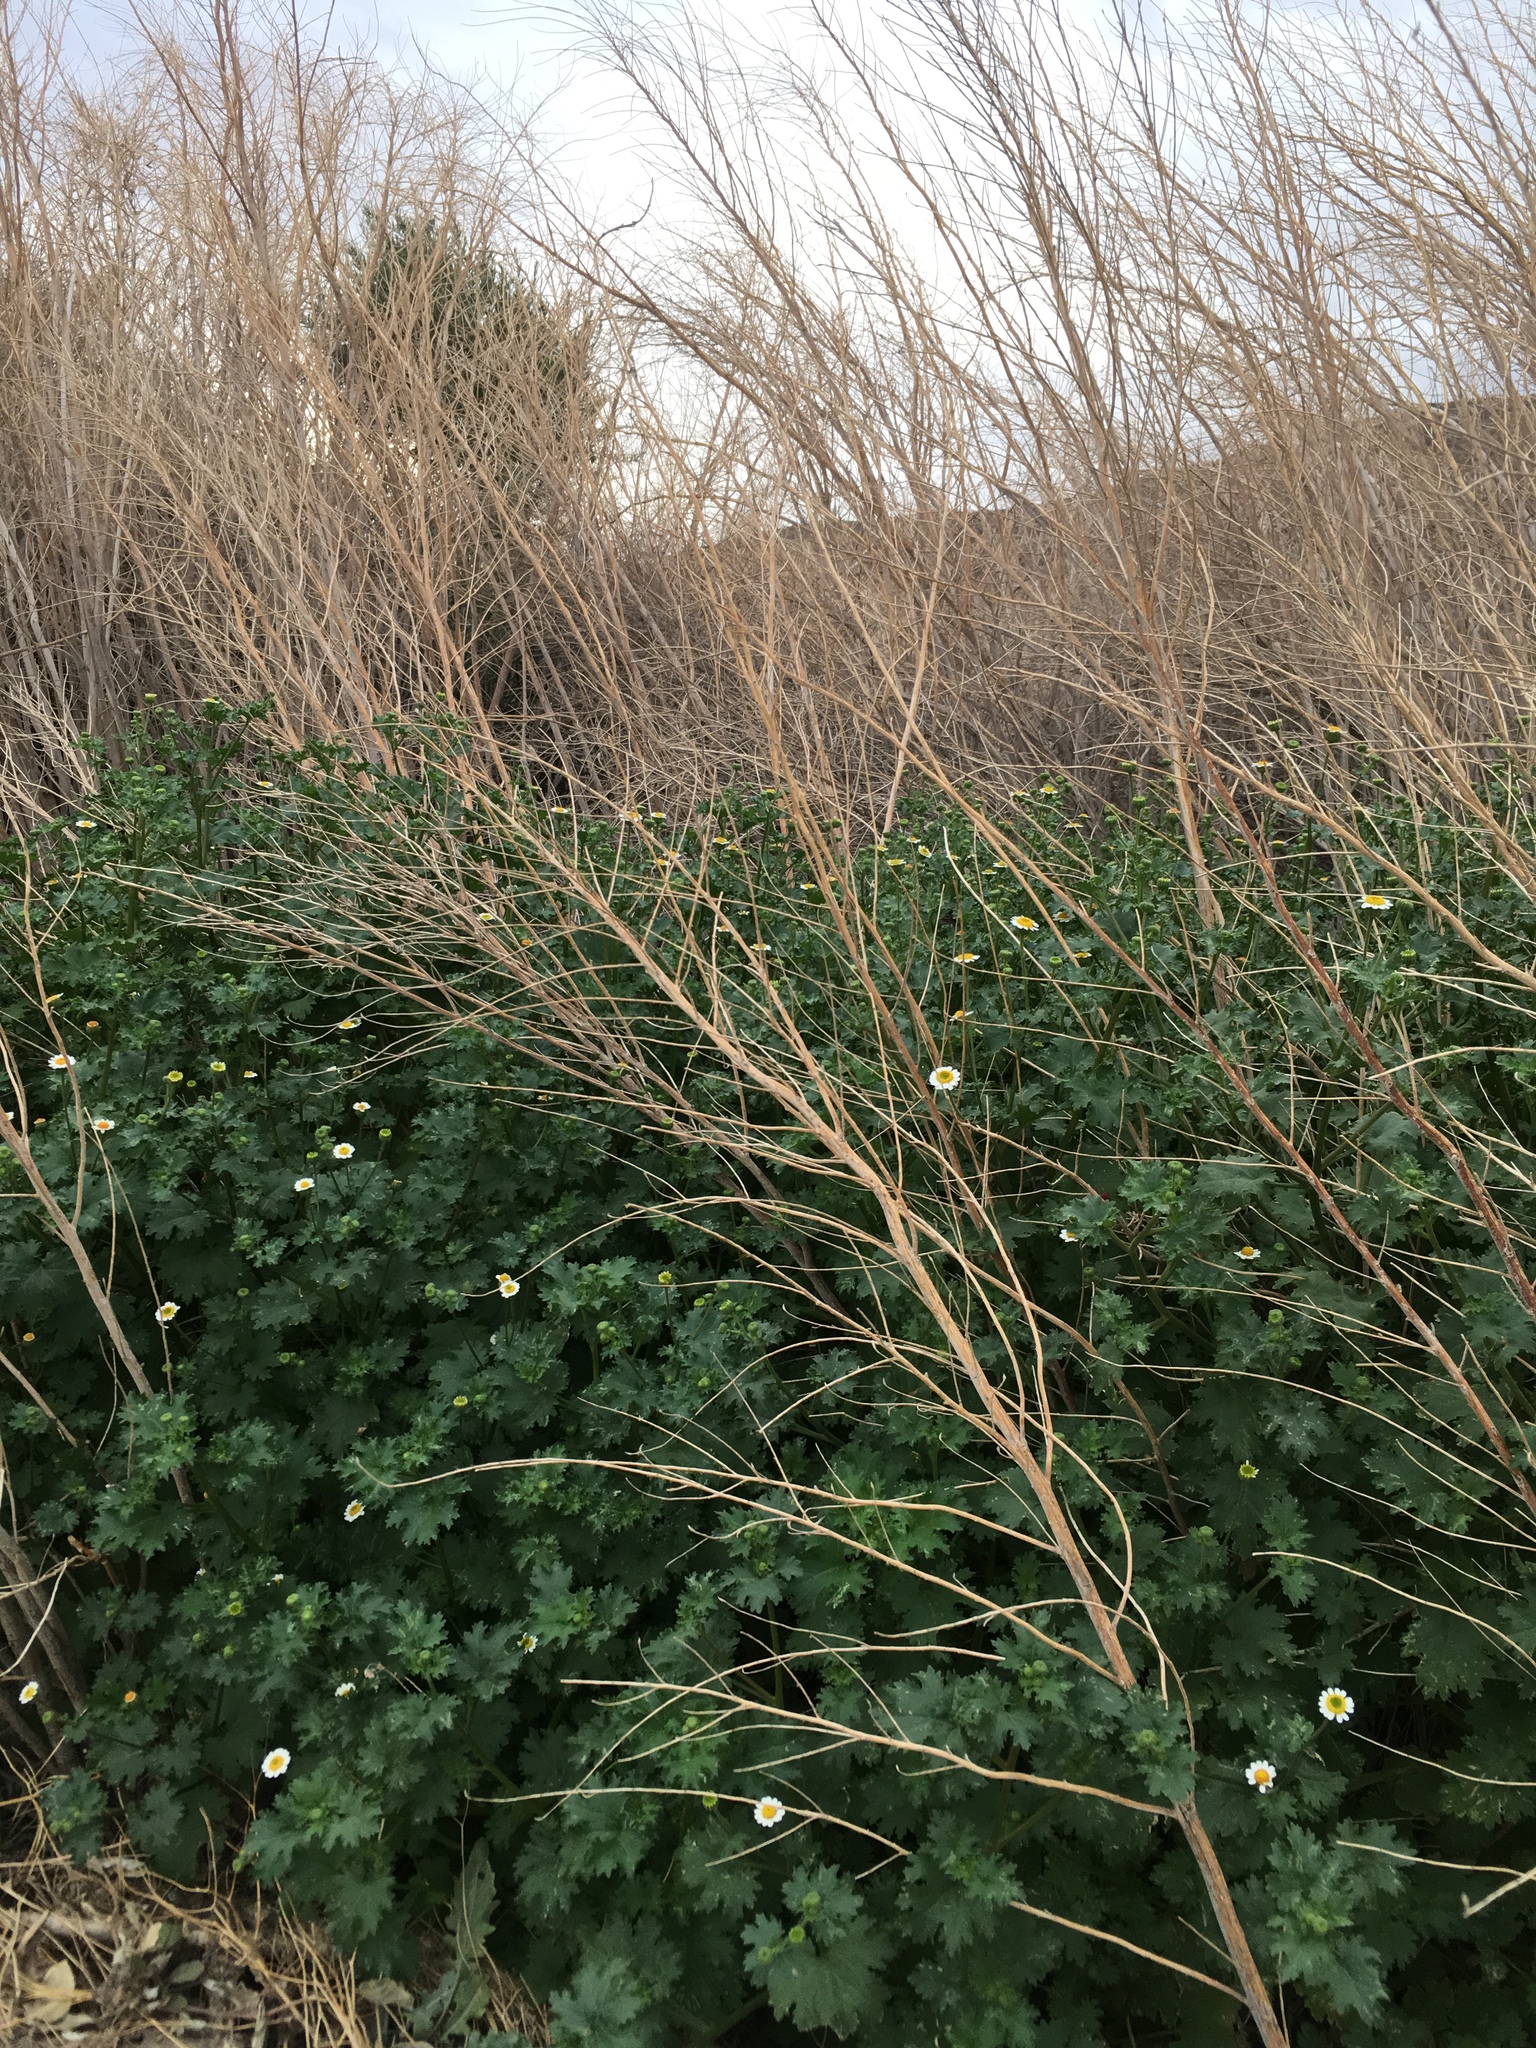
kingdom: Plantae
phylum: Tracheophyta
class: Magnoliopsida
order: Asterales
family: Asteraceae
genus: Laphamia
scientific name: Laphamia emoryi
